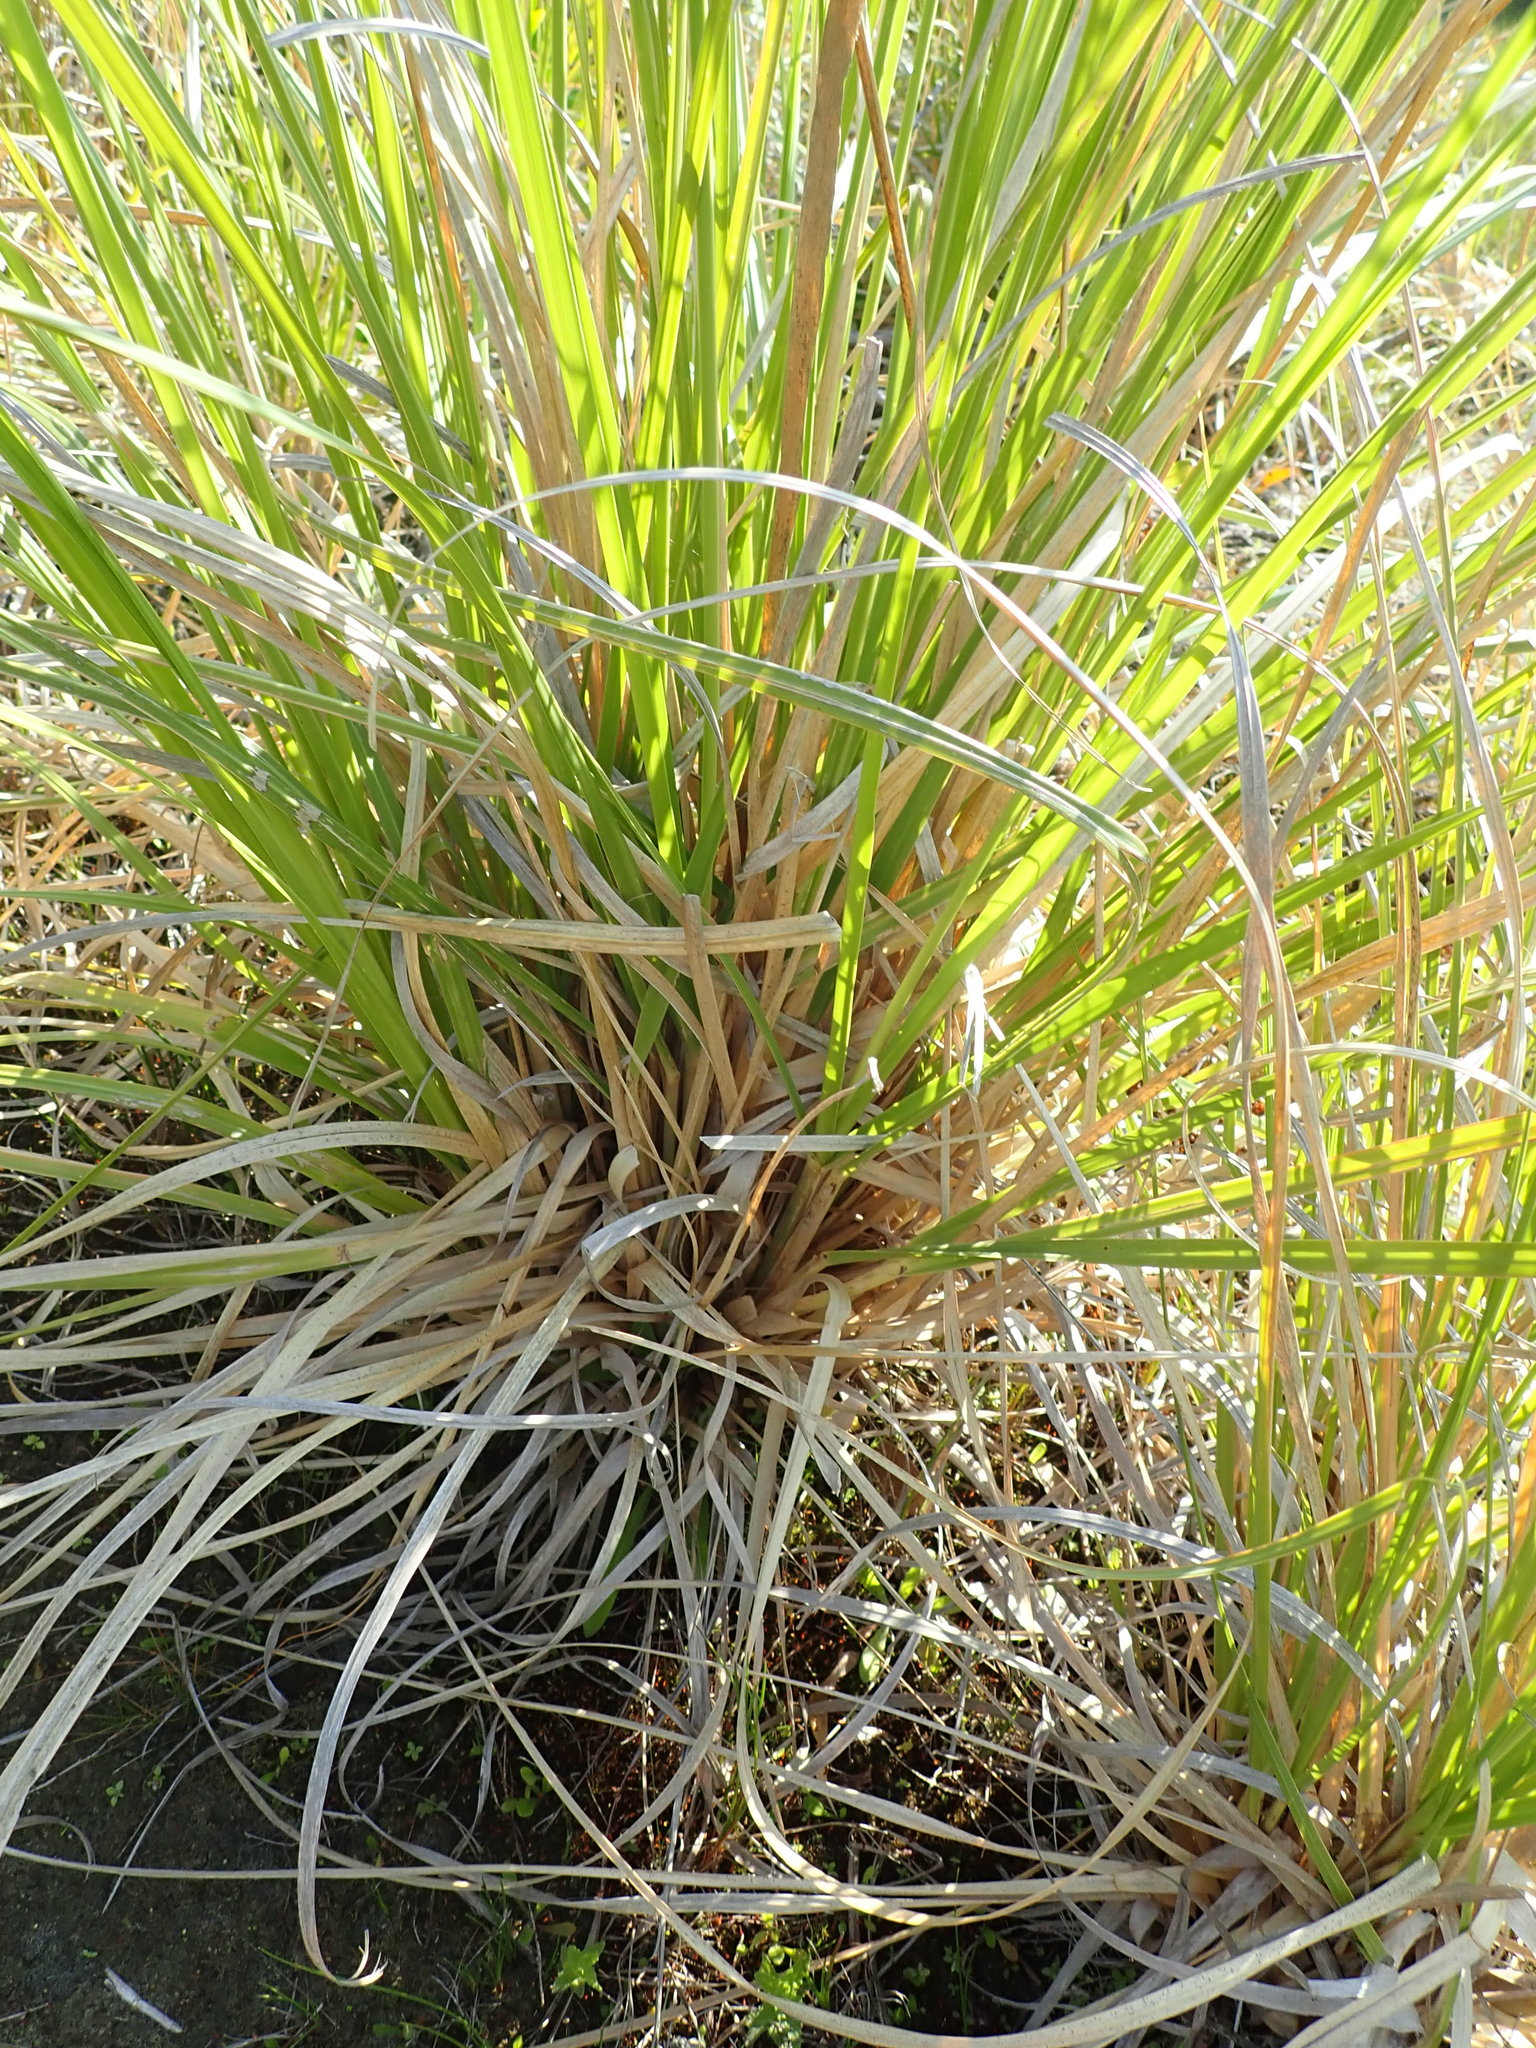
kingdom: Plantae
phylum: Tracheophyta
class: Liliopsida
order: Poales
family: Poaceae
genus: Cortaderia
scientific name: Cortaderia selloana
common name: Uruguayan pampas grass
